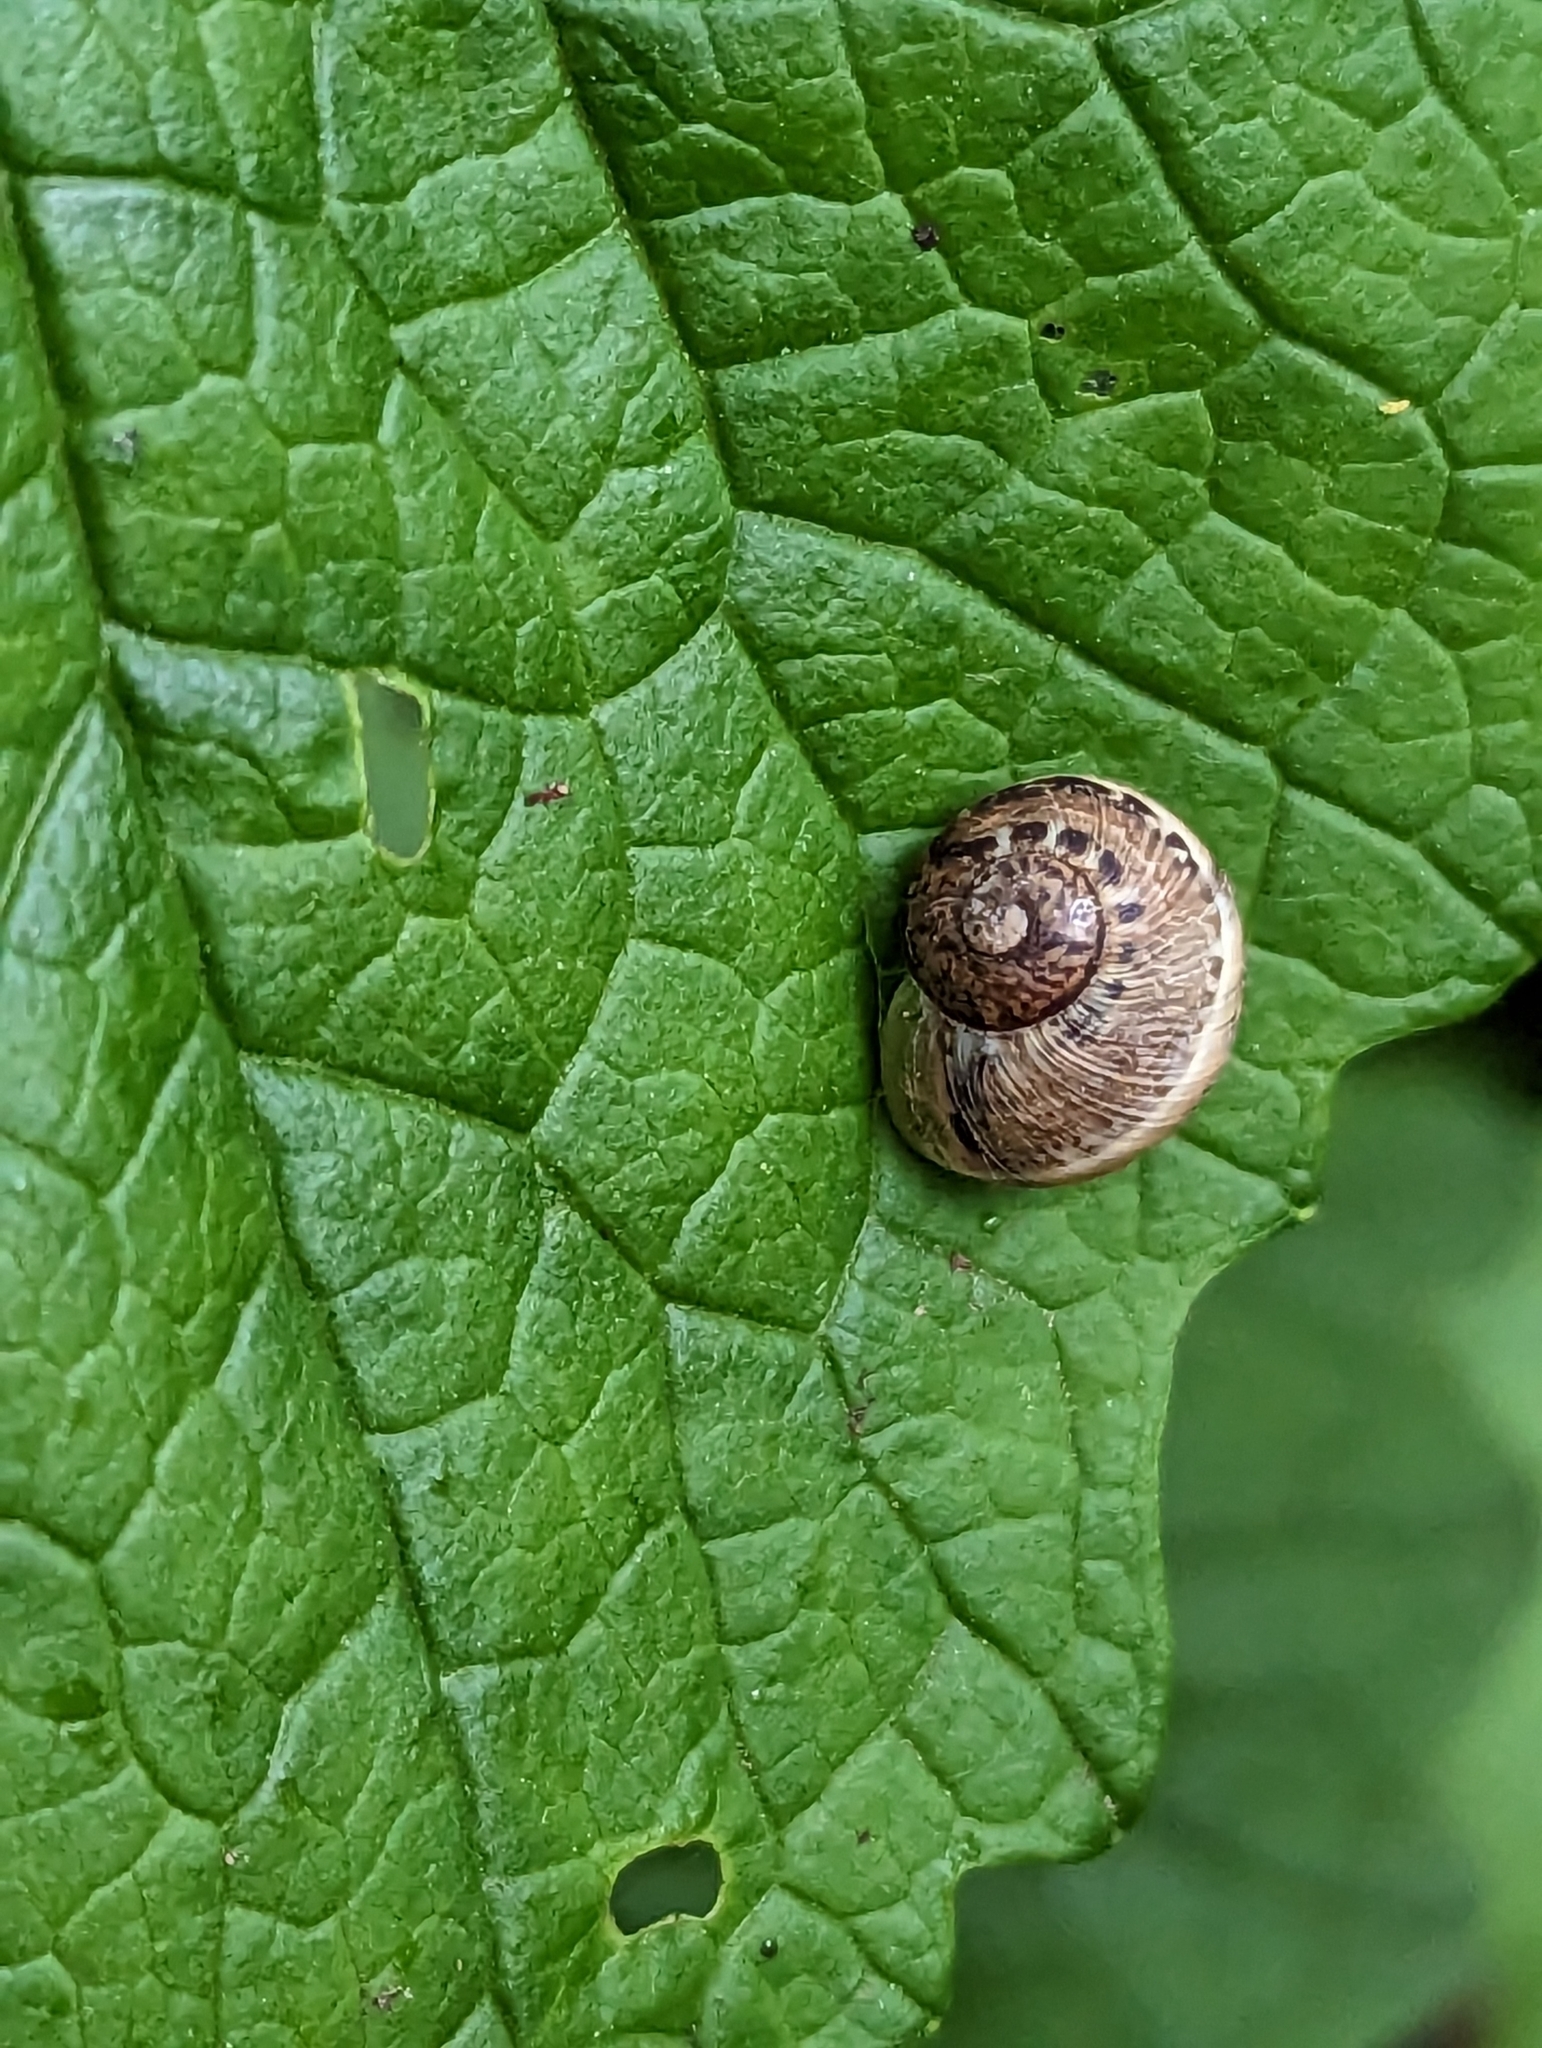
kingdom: Animalia
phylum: Mollusca
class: Gastropoda
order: Stylommatophora
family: Helicidae
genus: Cornu
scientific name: Cornu aspersum
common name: Brown garden snail
